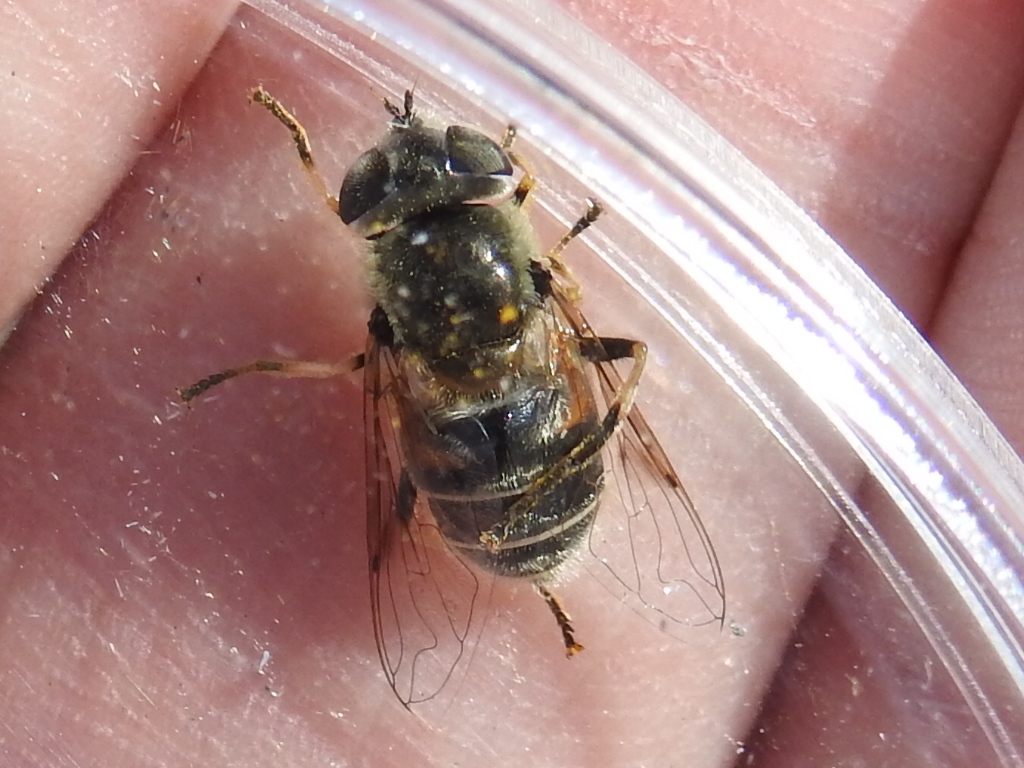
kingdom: Animalia
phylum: Arthropoda
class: Insecta
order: Diptera
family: Syrphidae
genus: Eristalis
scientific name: Eristalis stipator
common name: Yellow-shouldered drone fly
